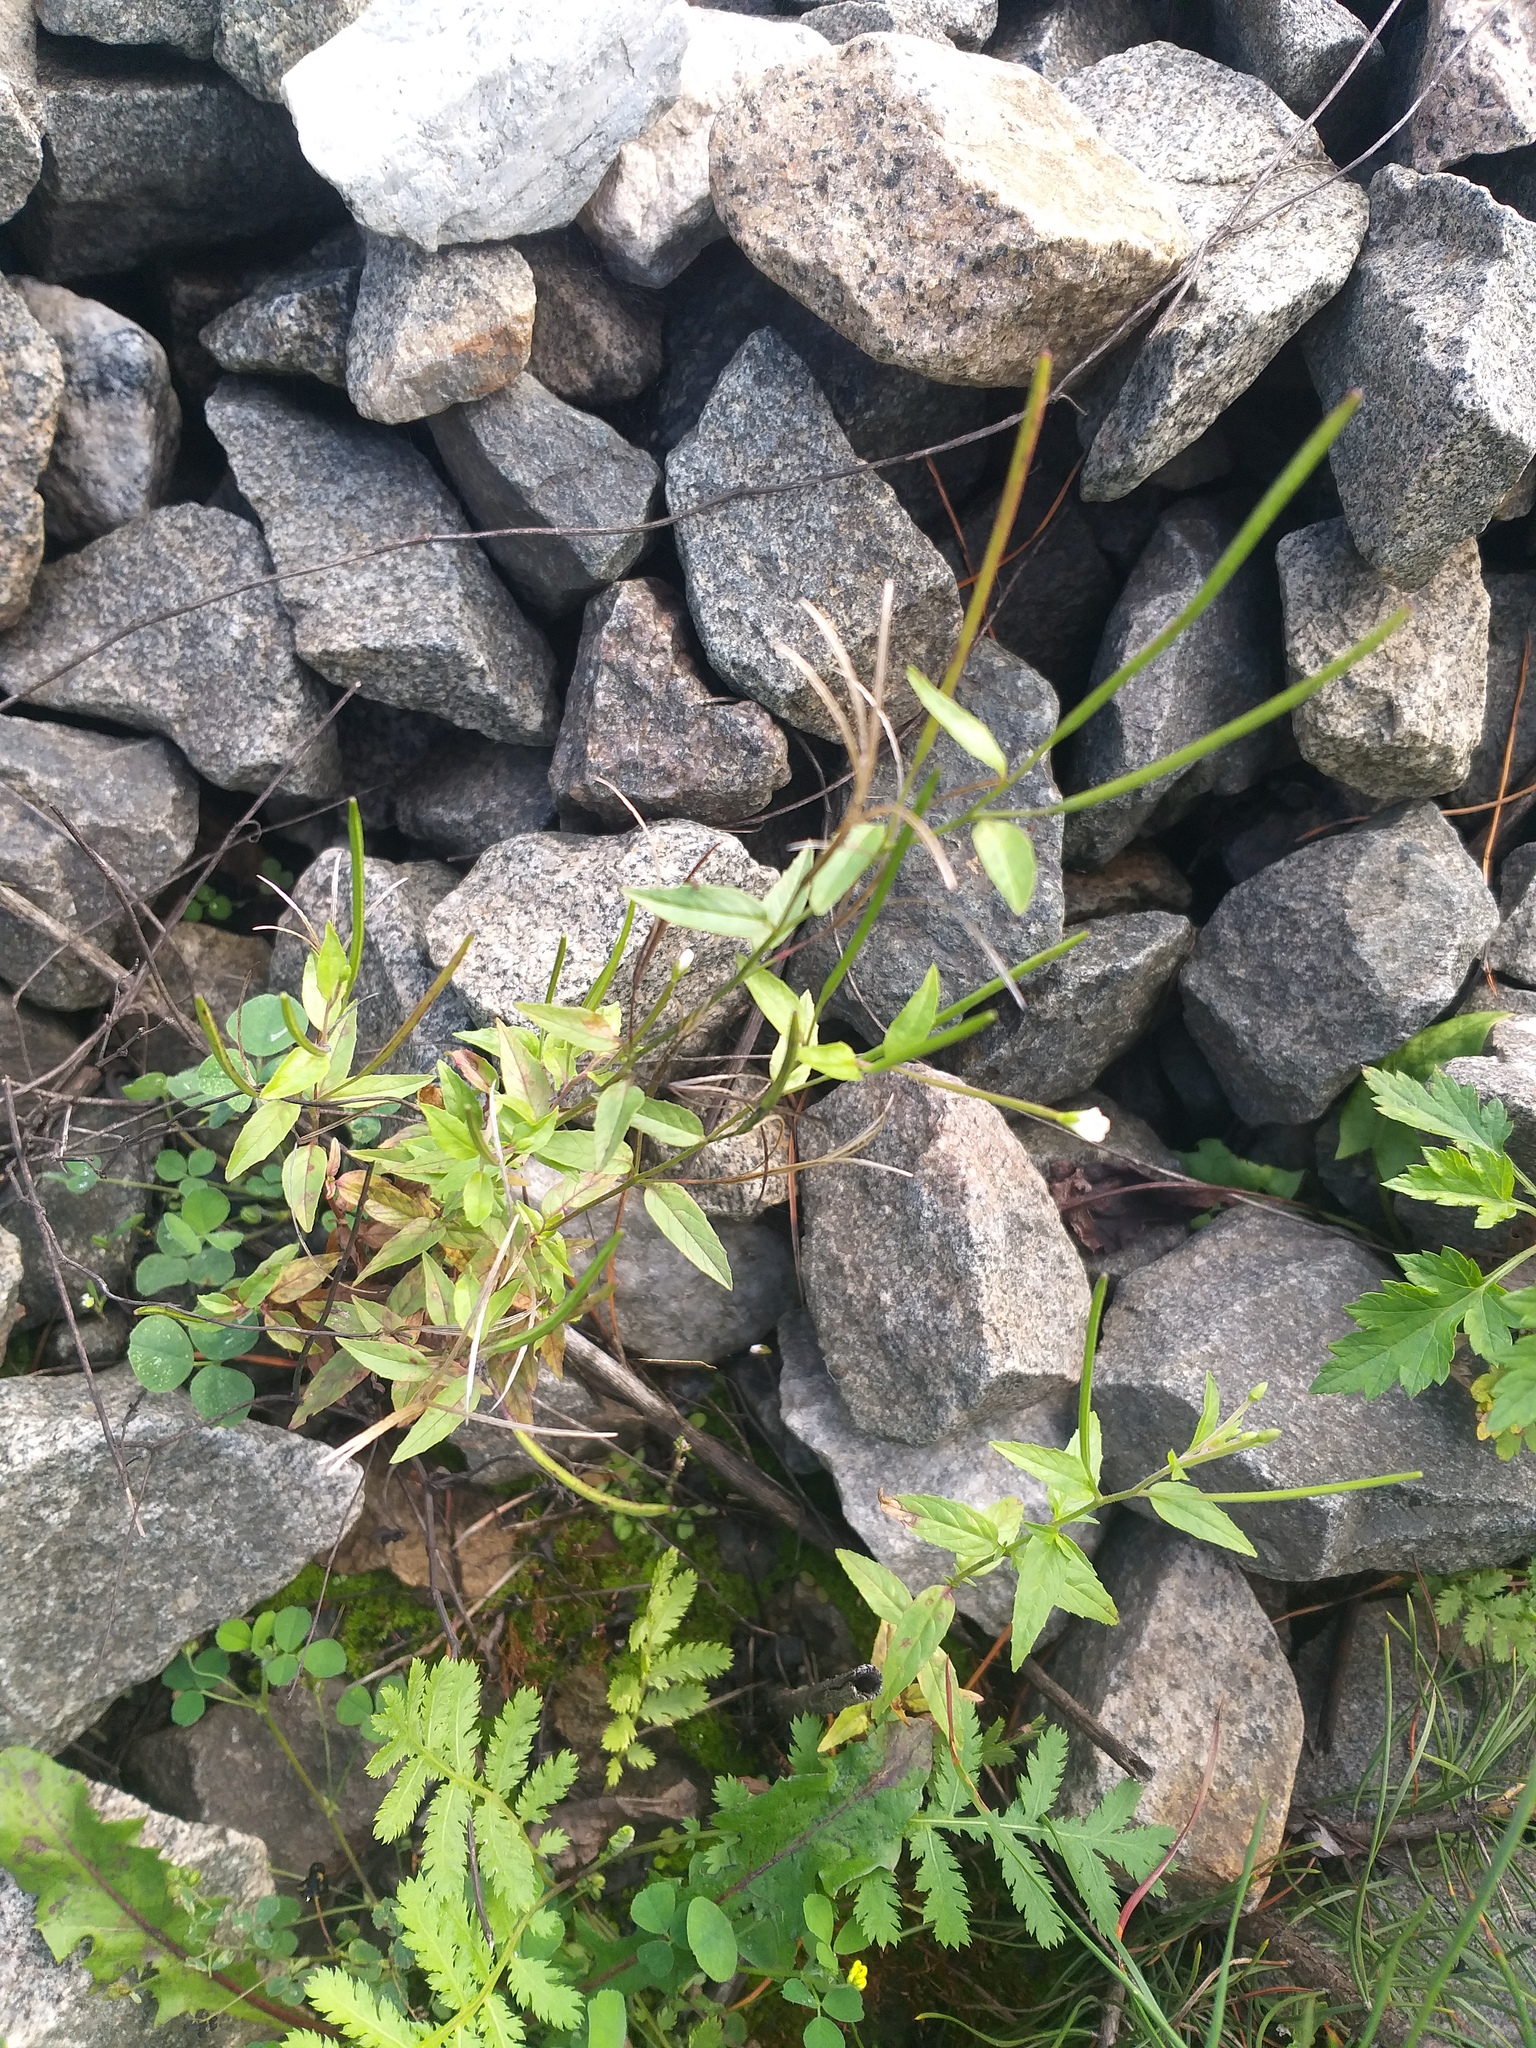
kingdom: Plantae
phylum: Tracheophyta
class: Magnoliopsida
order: Myrtales
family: Onagraceae
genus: Epilobium
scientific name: Epilobium pseudorubescens
